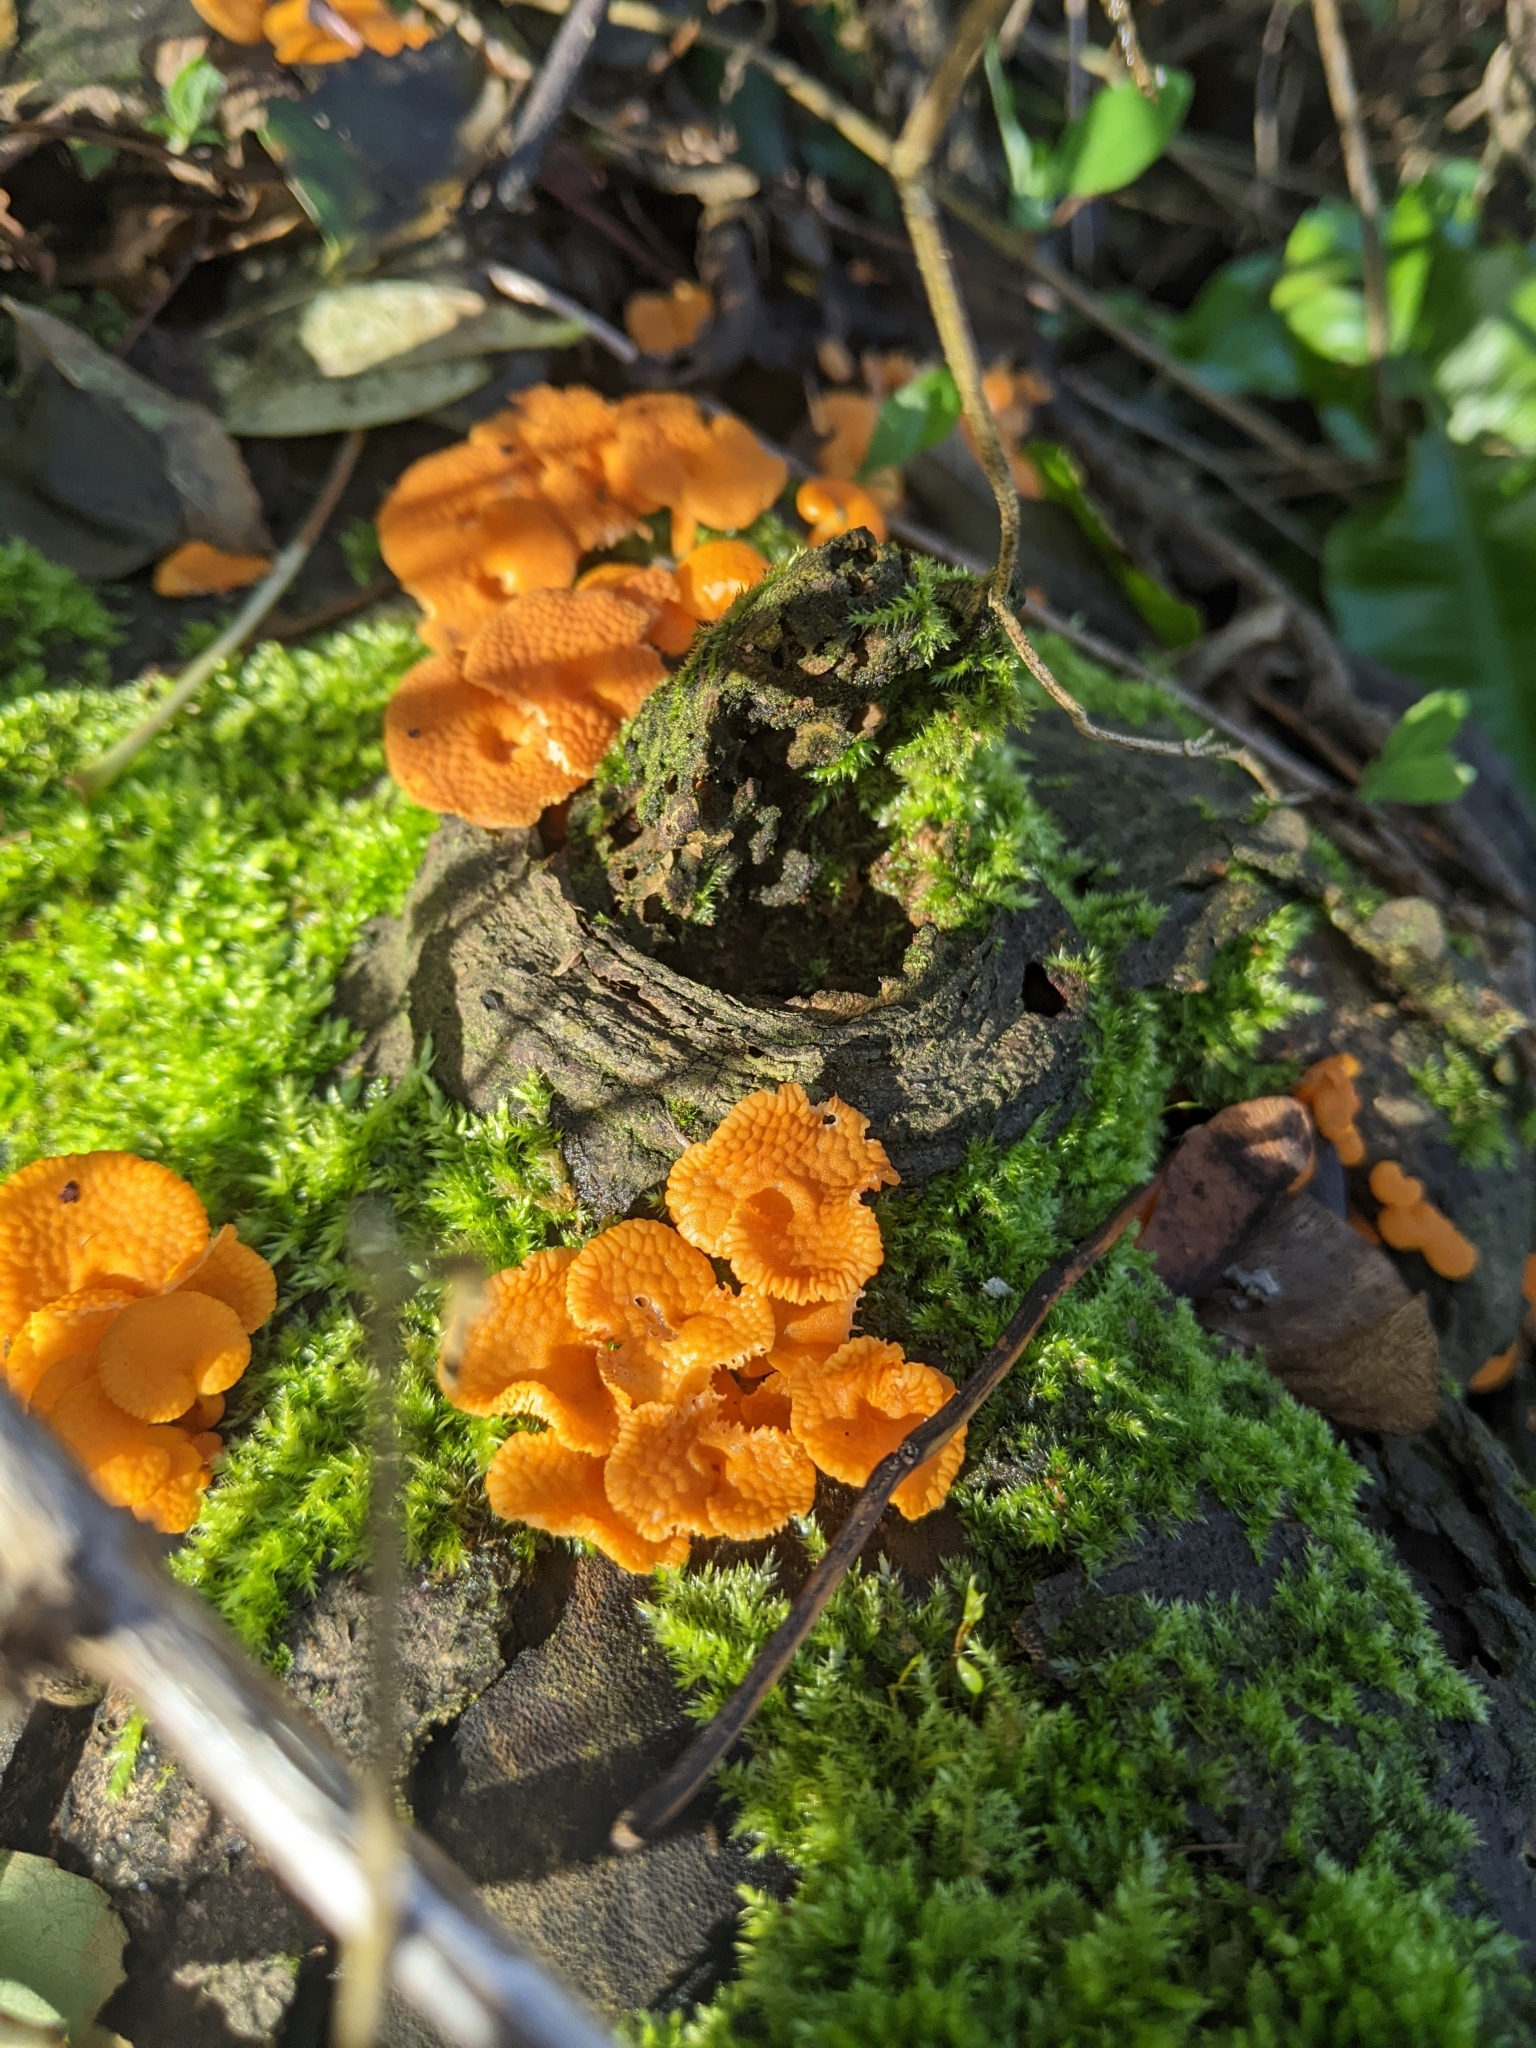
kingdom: Fungi
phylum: Basidiomycota
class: Agaricomycetes
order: Agaricales
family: Mycenaceae
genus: Favolaschia
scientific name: Favolaschia claudopus
